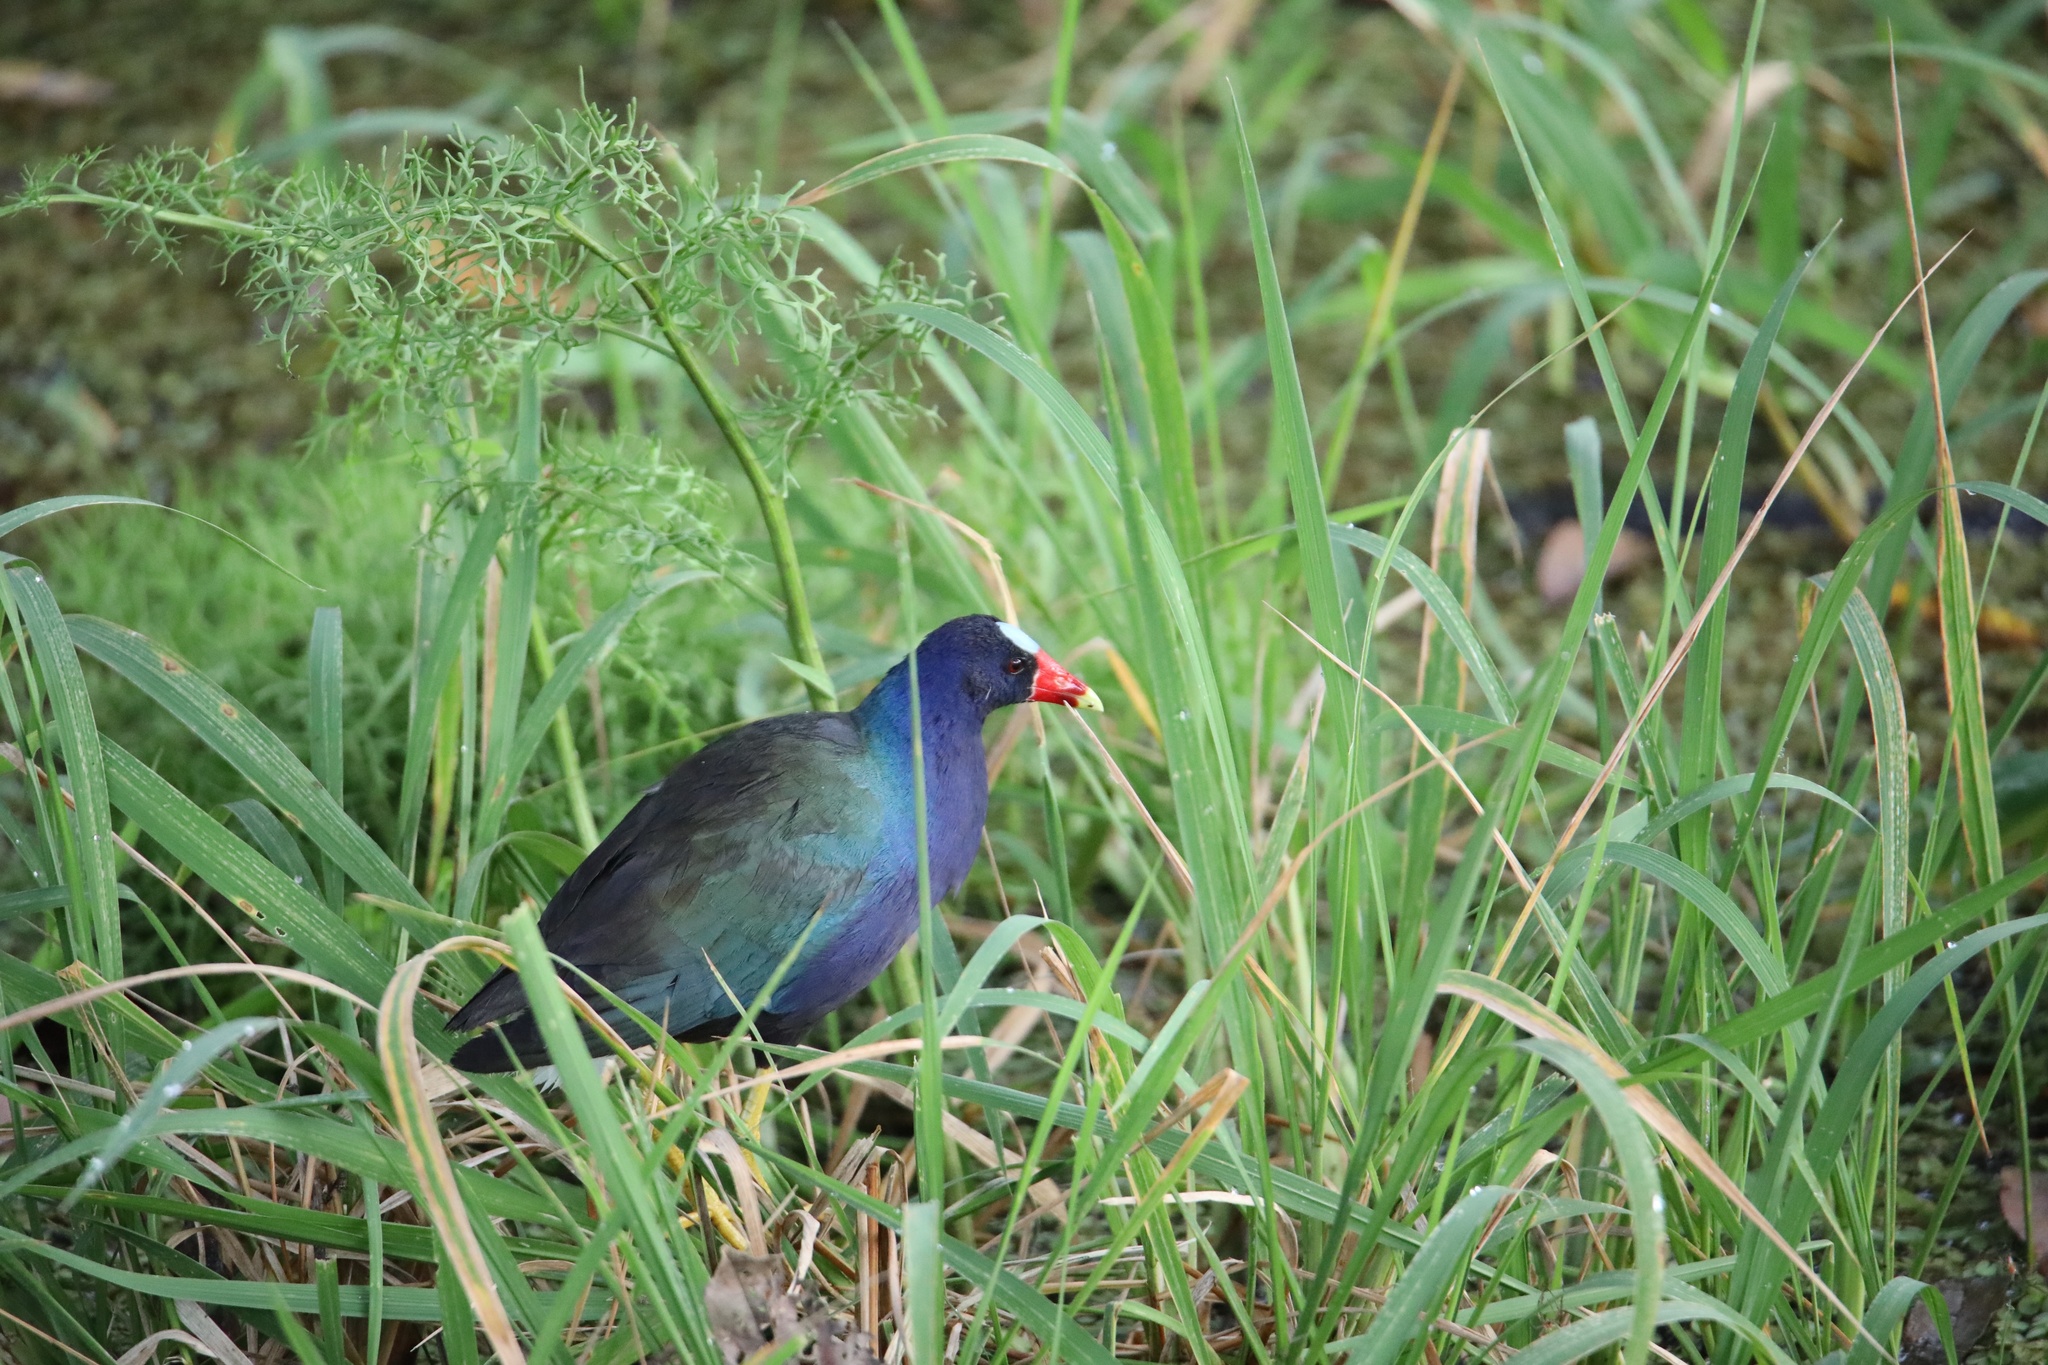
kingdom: Animalia
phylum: Chordata
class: Aves
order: Gruiformes
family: Rallidae
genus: Porphyrio
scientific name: Porphyrio martinica
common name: Purple gallinule
